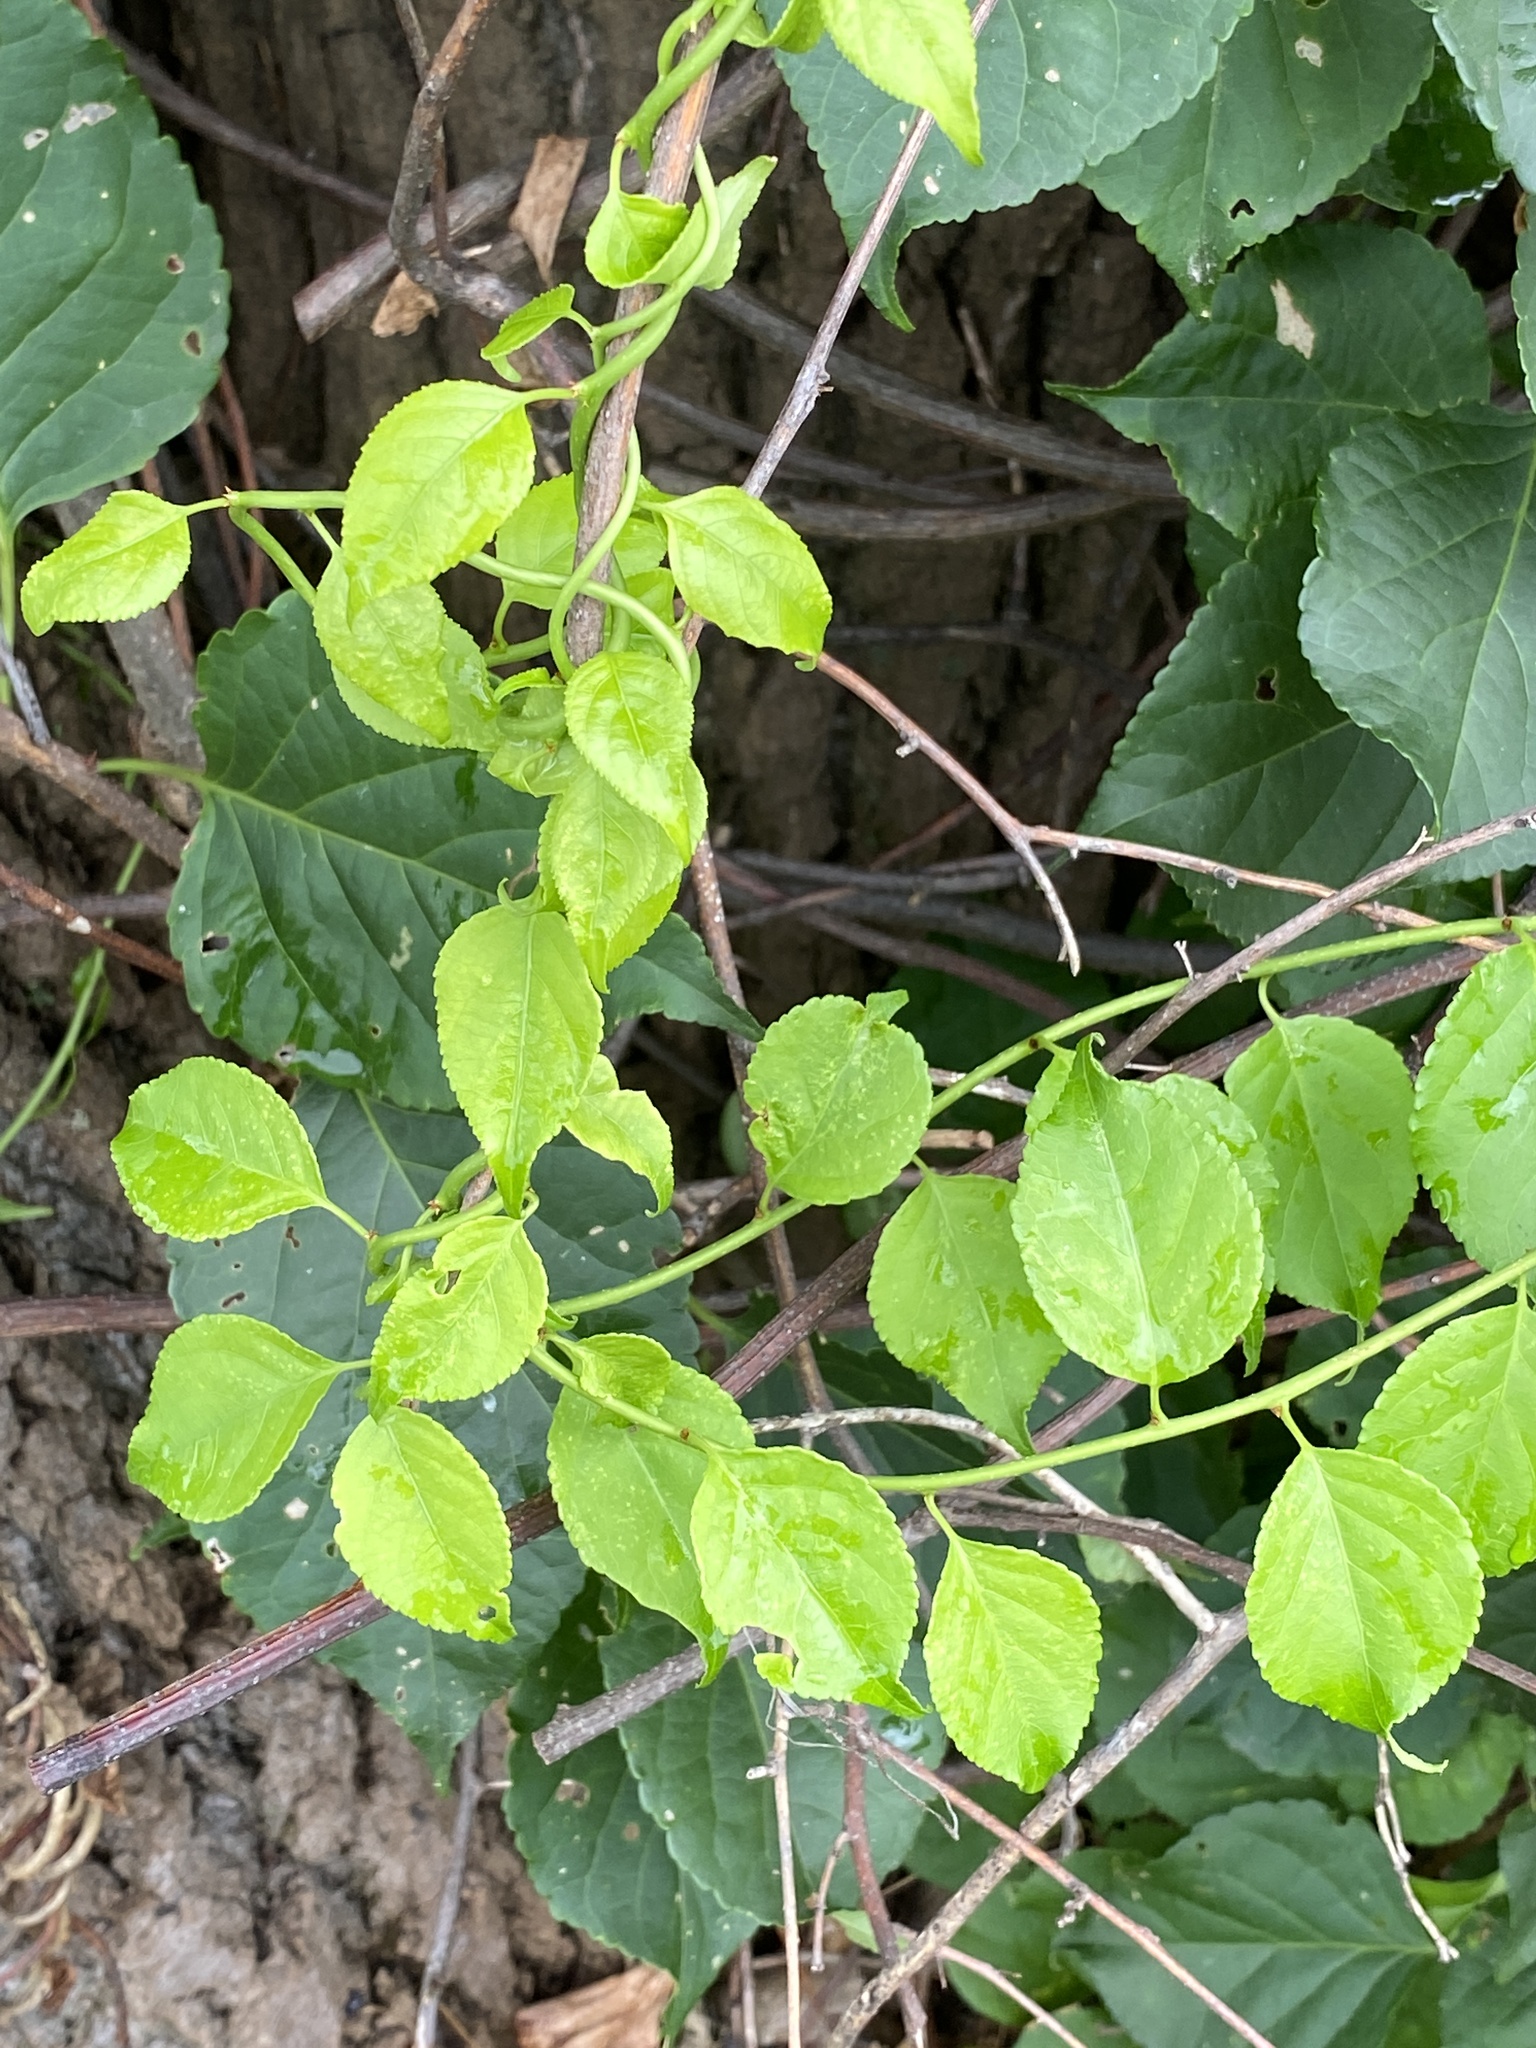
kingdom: Plantae
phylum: Tracheophyta
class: Magnoliopsida
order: Celastrales
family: Celastraceae
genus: Celastrus
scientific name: Celastrus orbiculatus
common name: Oriental bittersweet
